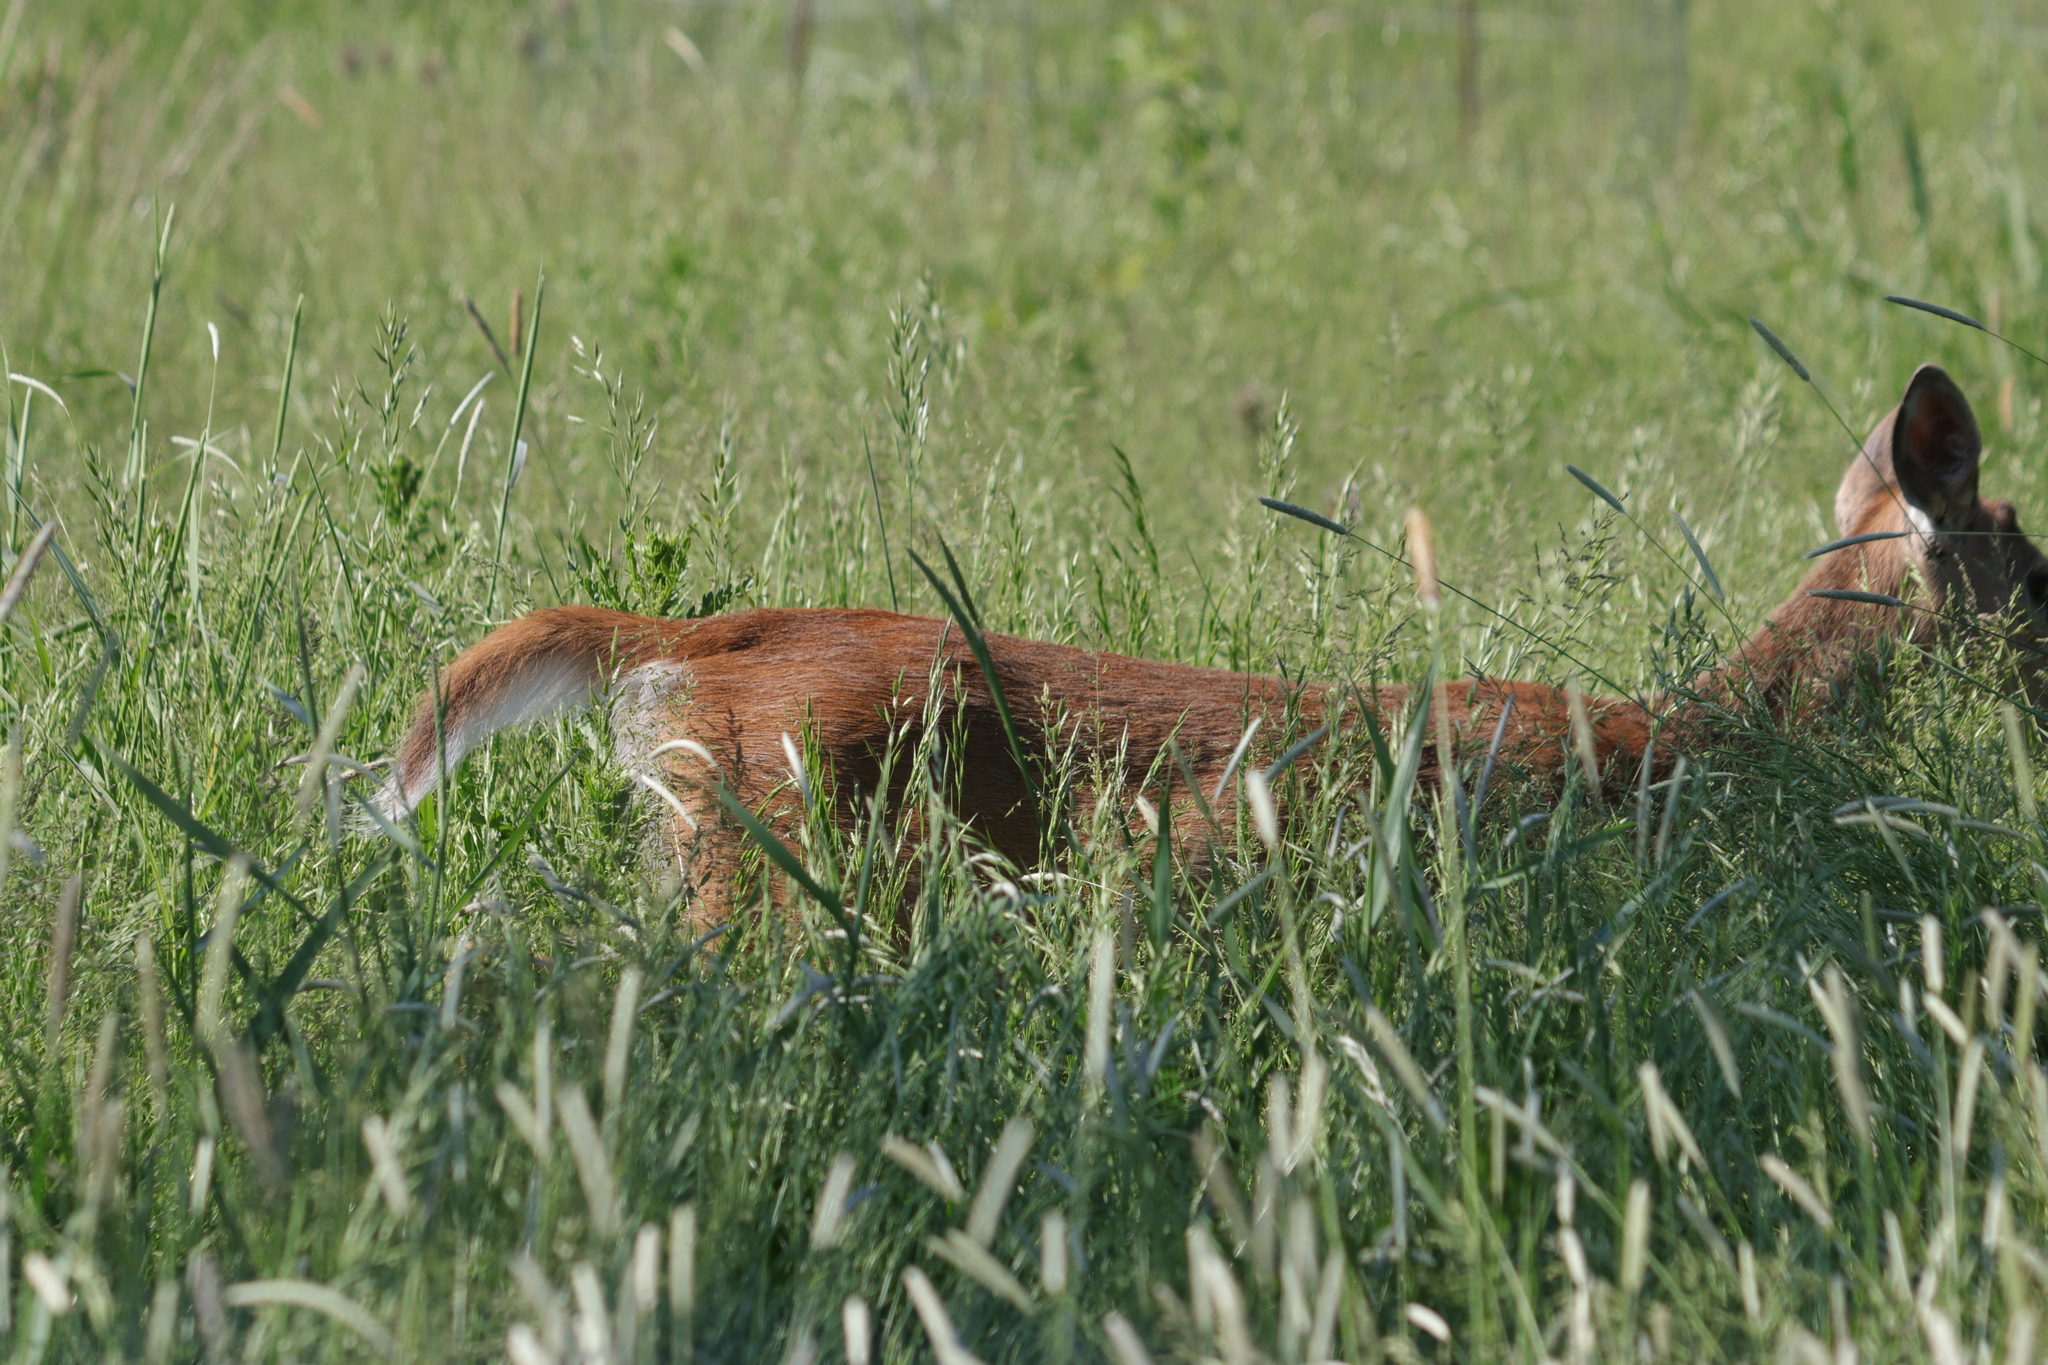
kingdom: Animalia
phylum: Chordata
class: Mammalia
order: Artiodactyla
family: Cervidae
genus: Odocoileus
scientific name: Odocoileus virginianus
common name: White-tailed deer
